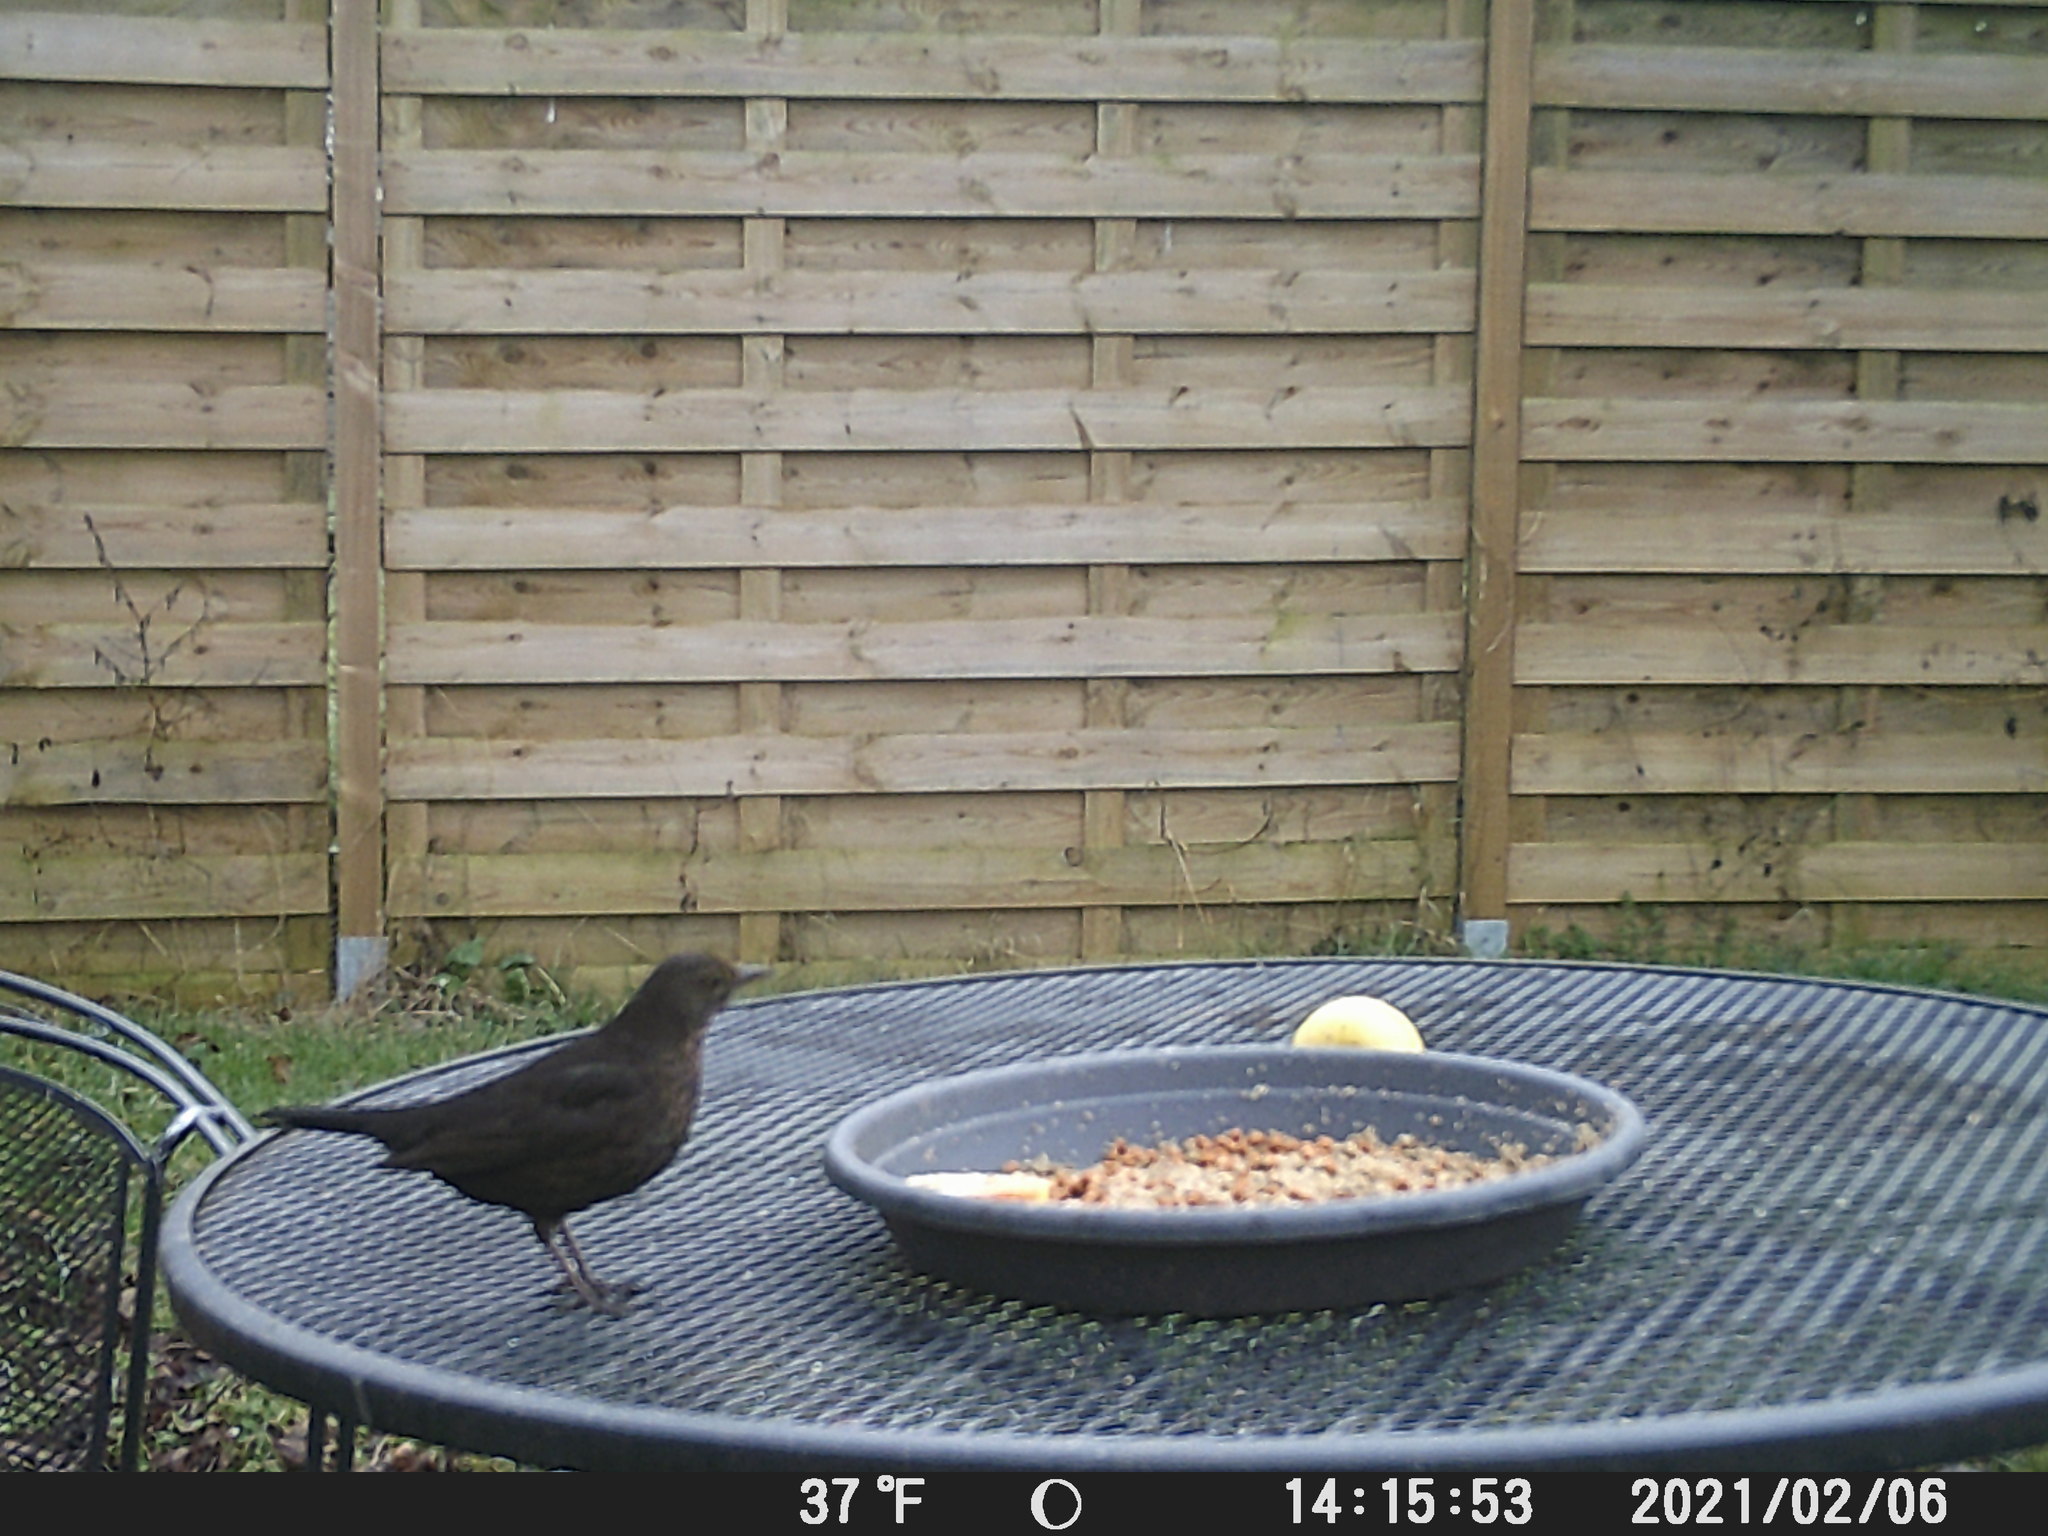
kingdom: Animalia
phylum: Chordata
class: Aves
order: Passeriformes
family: Turdidae
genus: Turdus
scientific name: Turdus merula
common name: Common blackbird
